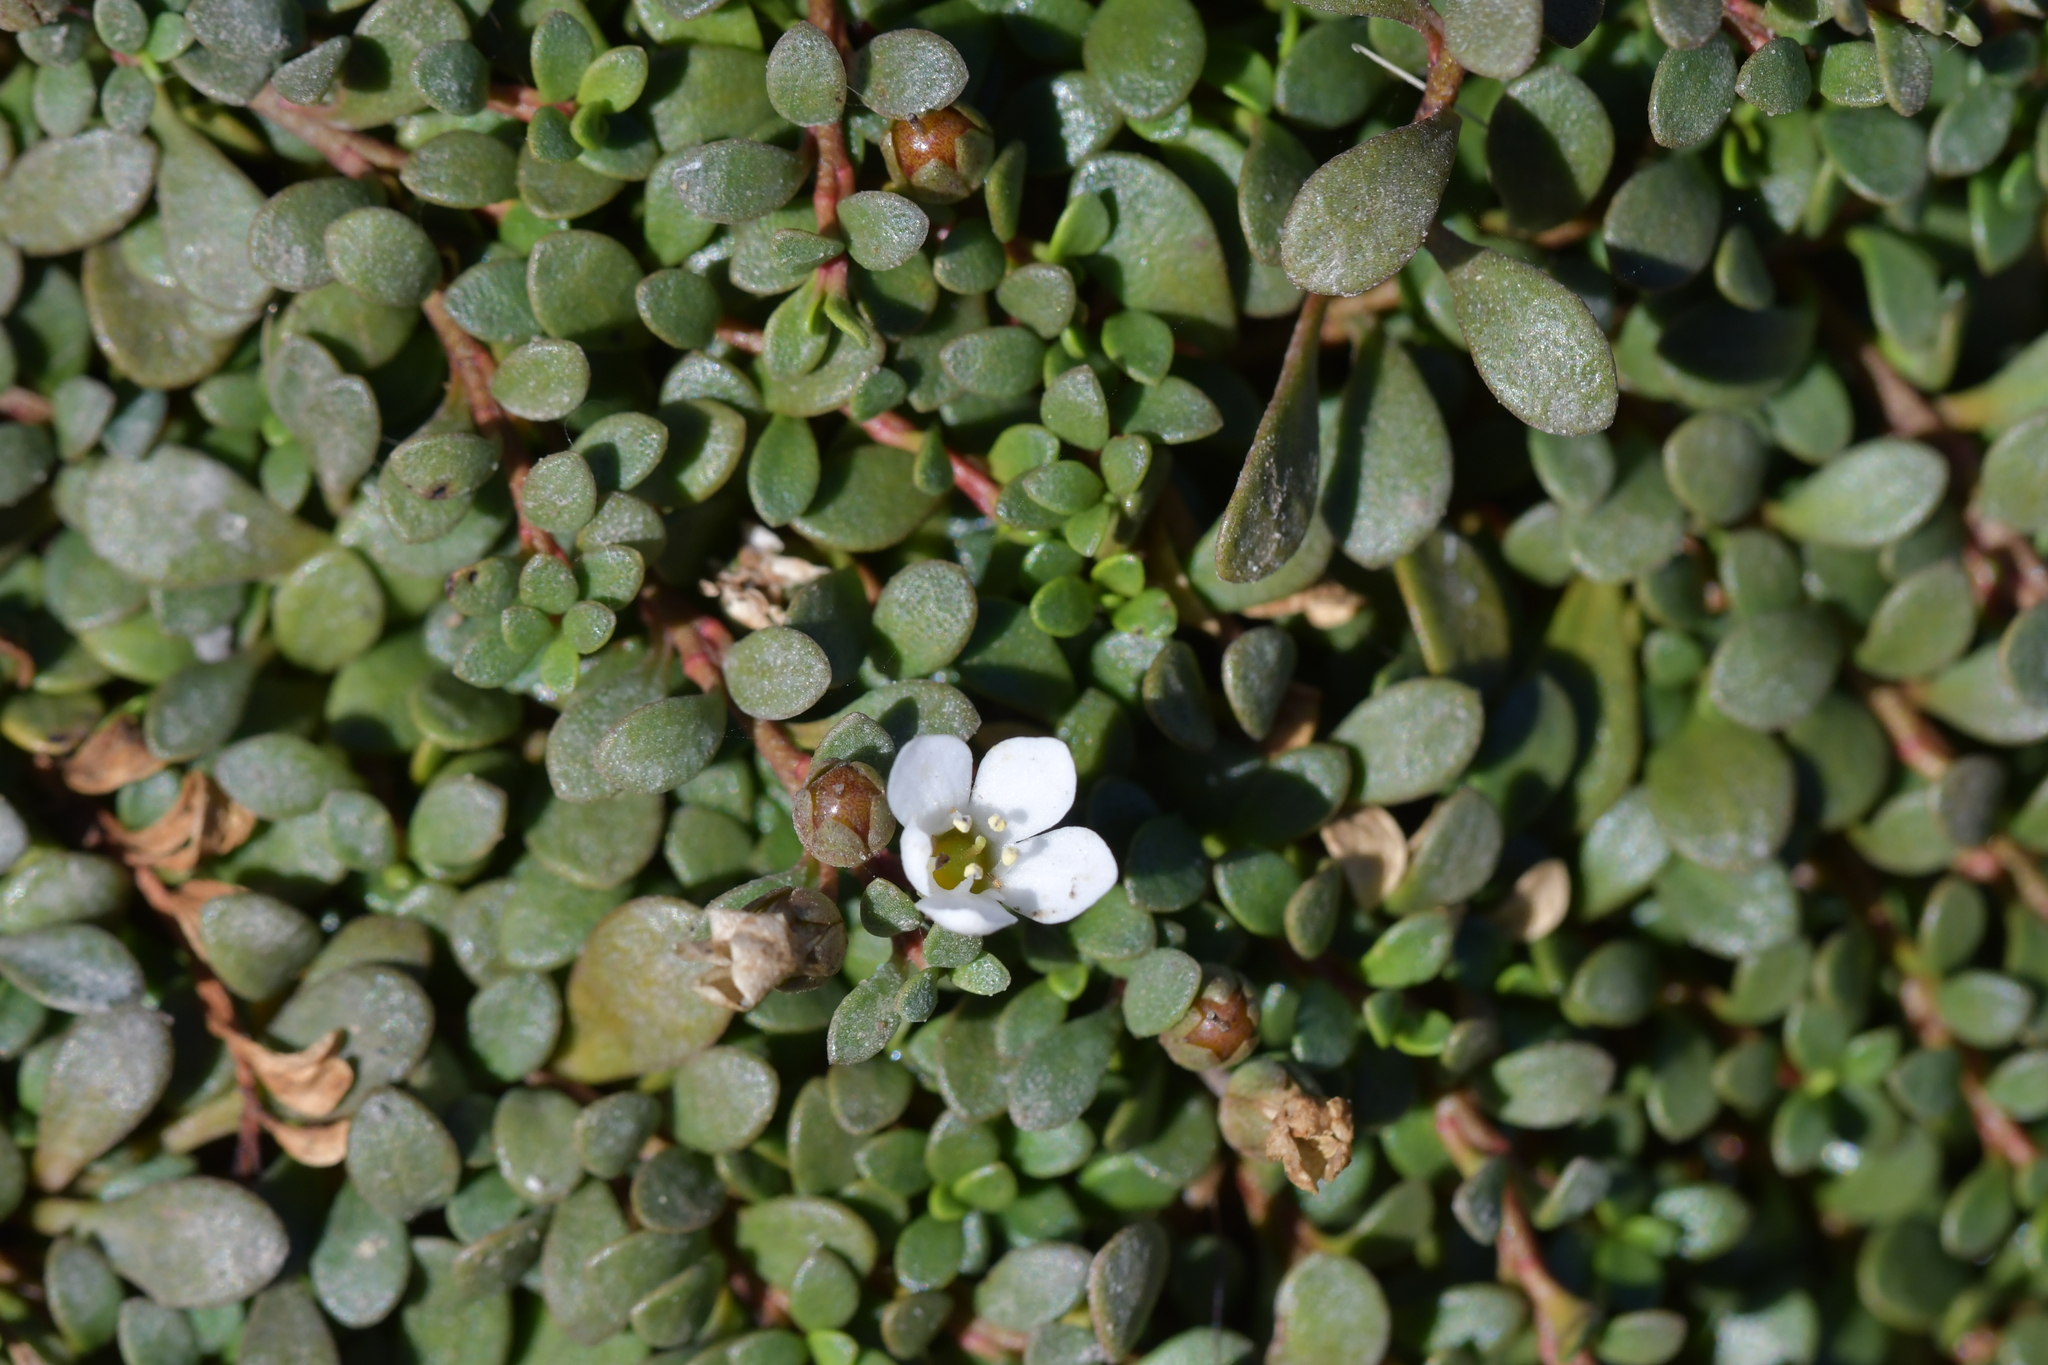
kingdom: Plantae
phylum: Tracheophyta
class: Magnoliopsida
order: Ericales
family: Primulaceae
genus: Samolus
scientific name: Samolus repens
